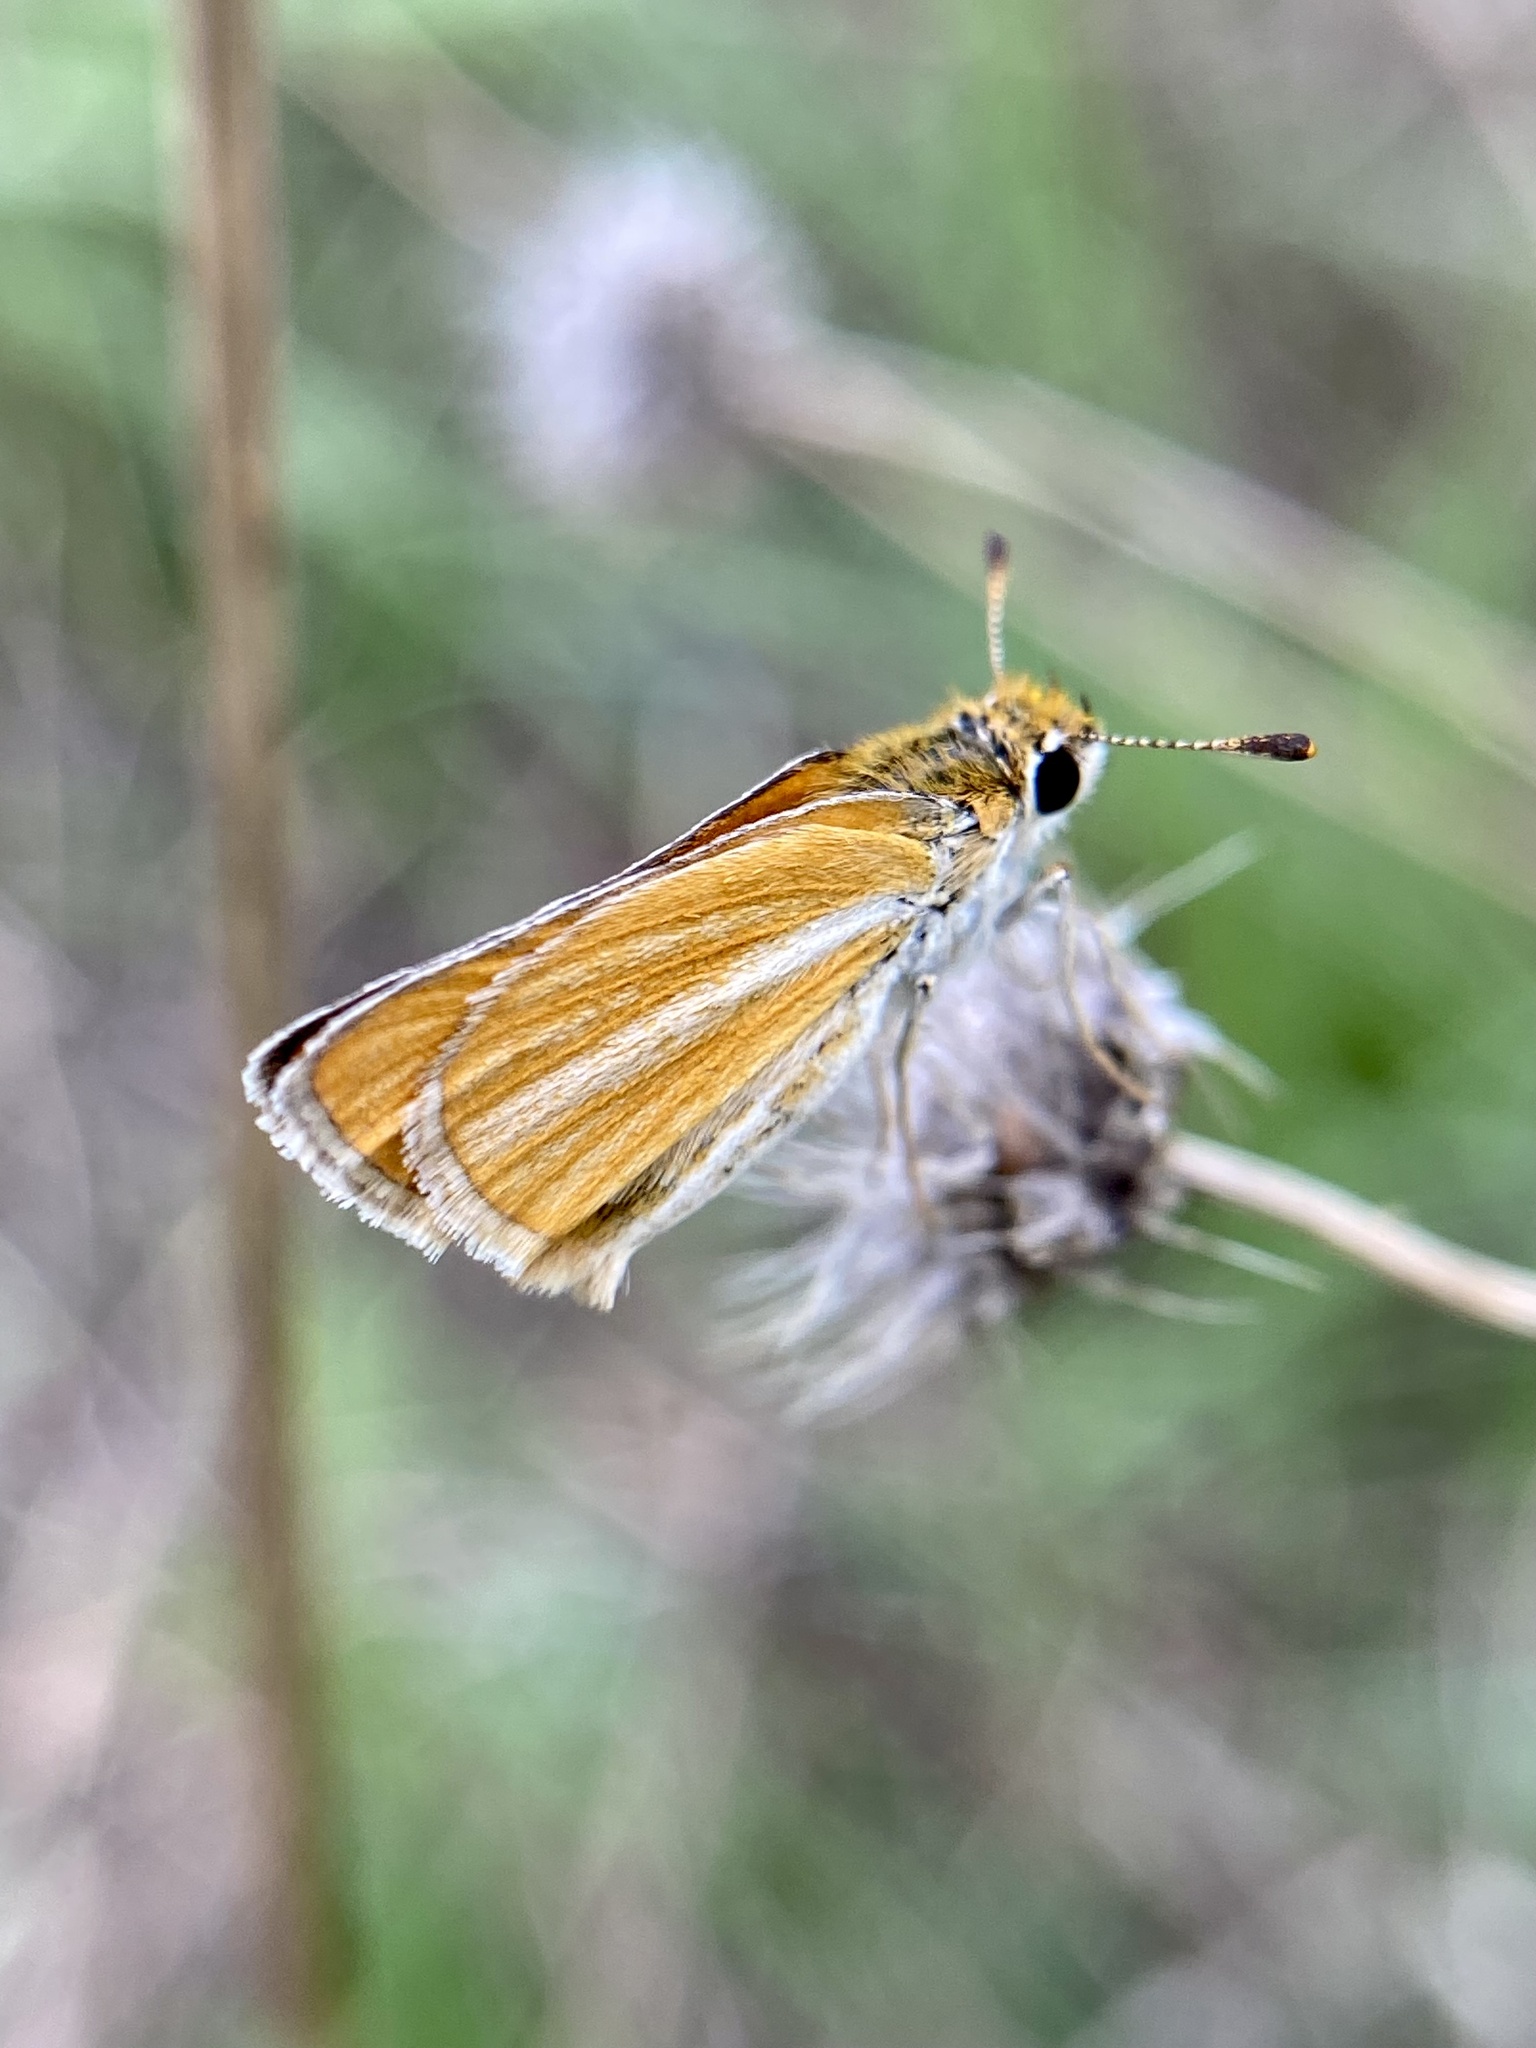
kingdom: Animalia
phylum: Arthropoda
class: Insecta
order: Lepidoptera
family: Hesperiidae
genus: Copaeodes
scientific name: Copaeodes minima
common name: Southern skipperling
